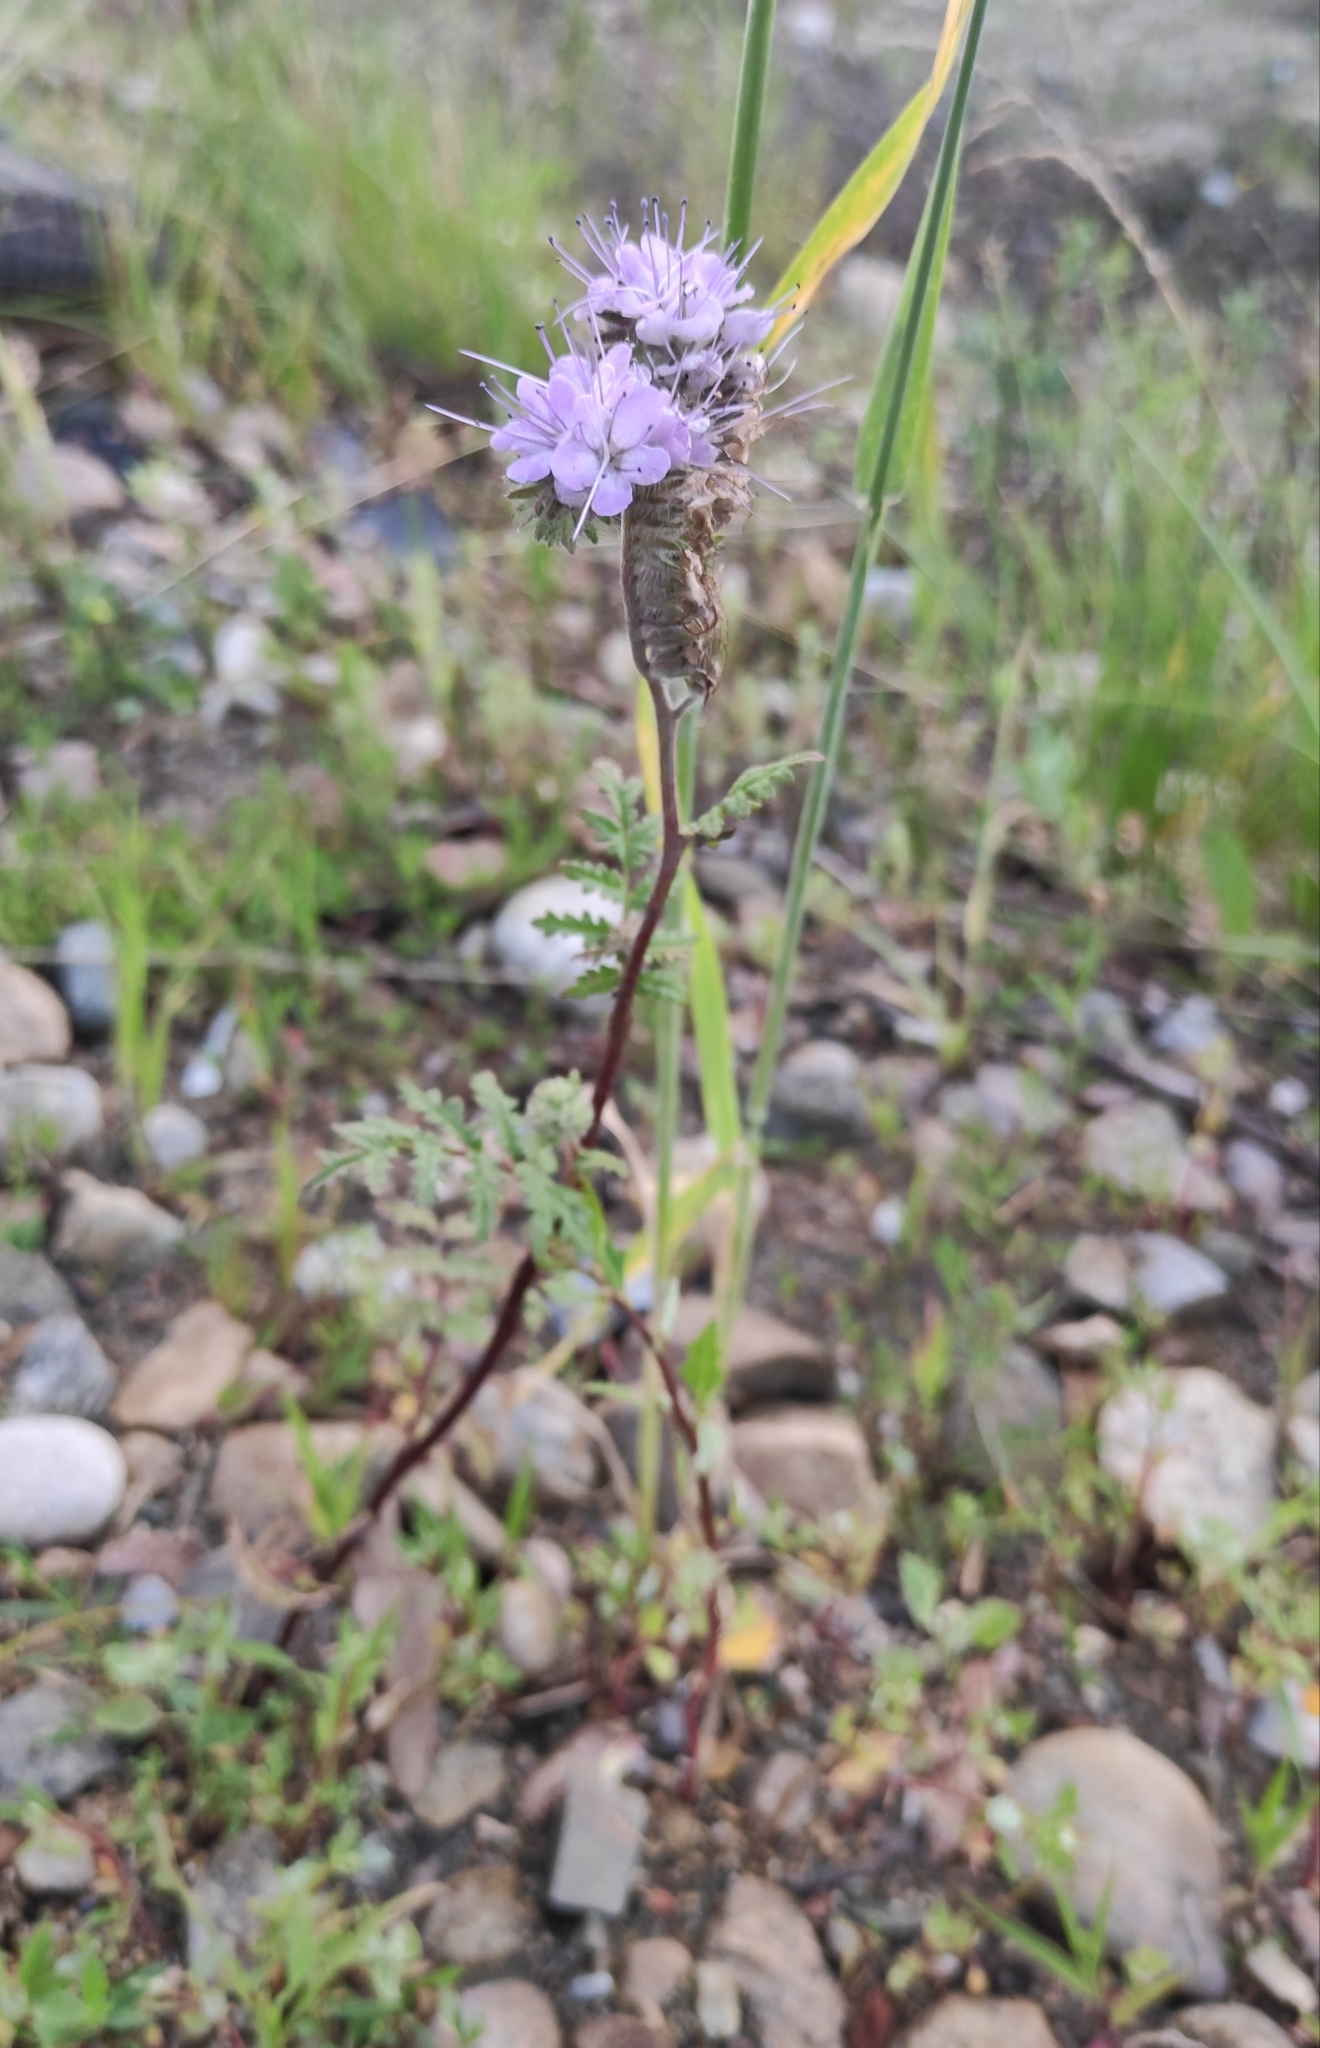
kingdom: Plantae
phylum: Tracheophyta
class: Magnoliopsida
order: Boraginales
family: Hydrophyllaceae
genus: Phacelia
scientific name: Phacelia tanacetifolia
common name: Phacelia
